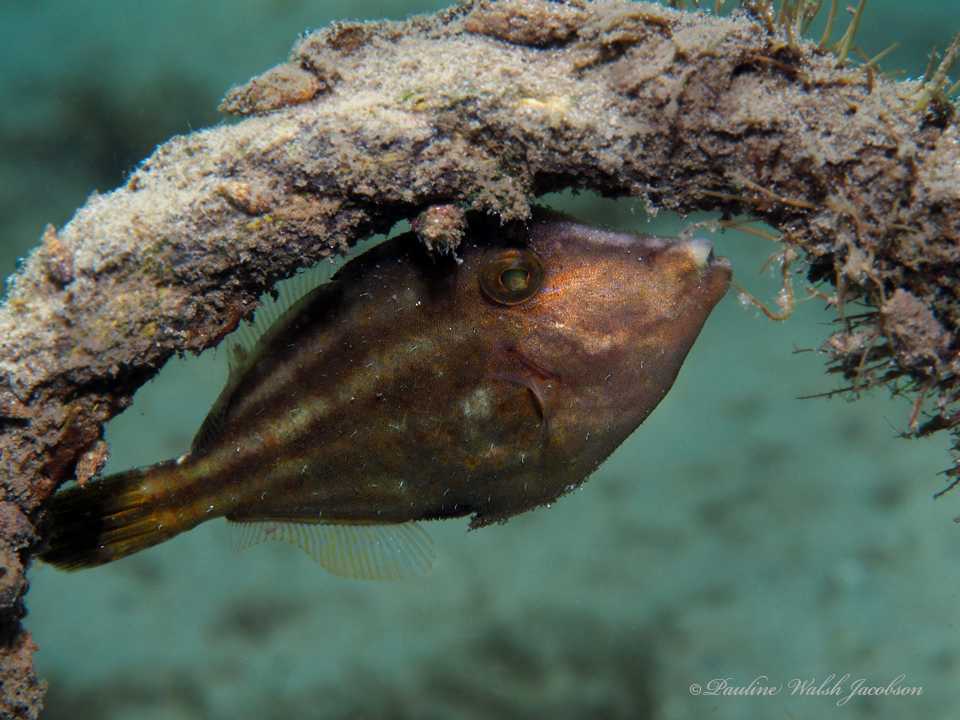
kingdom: Animalia
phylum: Chordata
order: Tetraodontiformes
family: Monacanthidae
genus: Cantherhines
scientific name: Cantherhines pullus
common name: Orangespotted filefish
